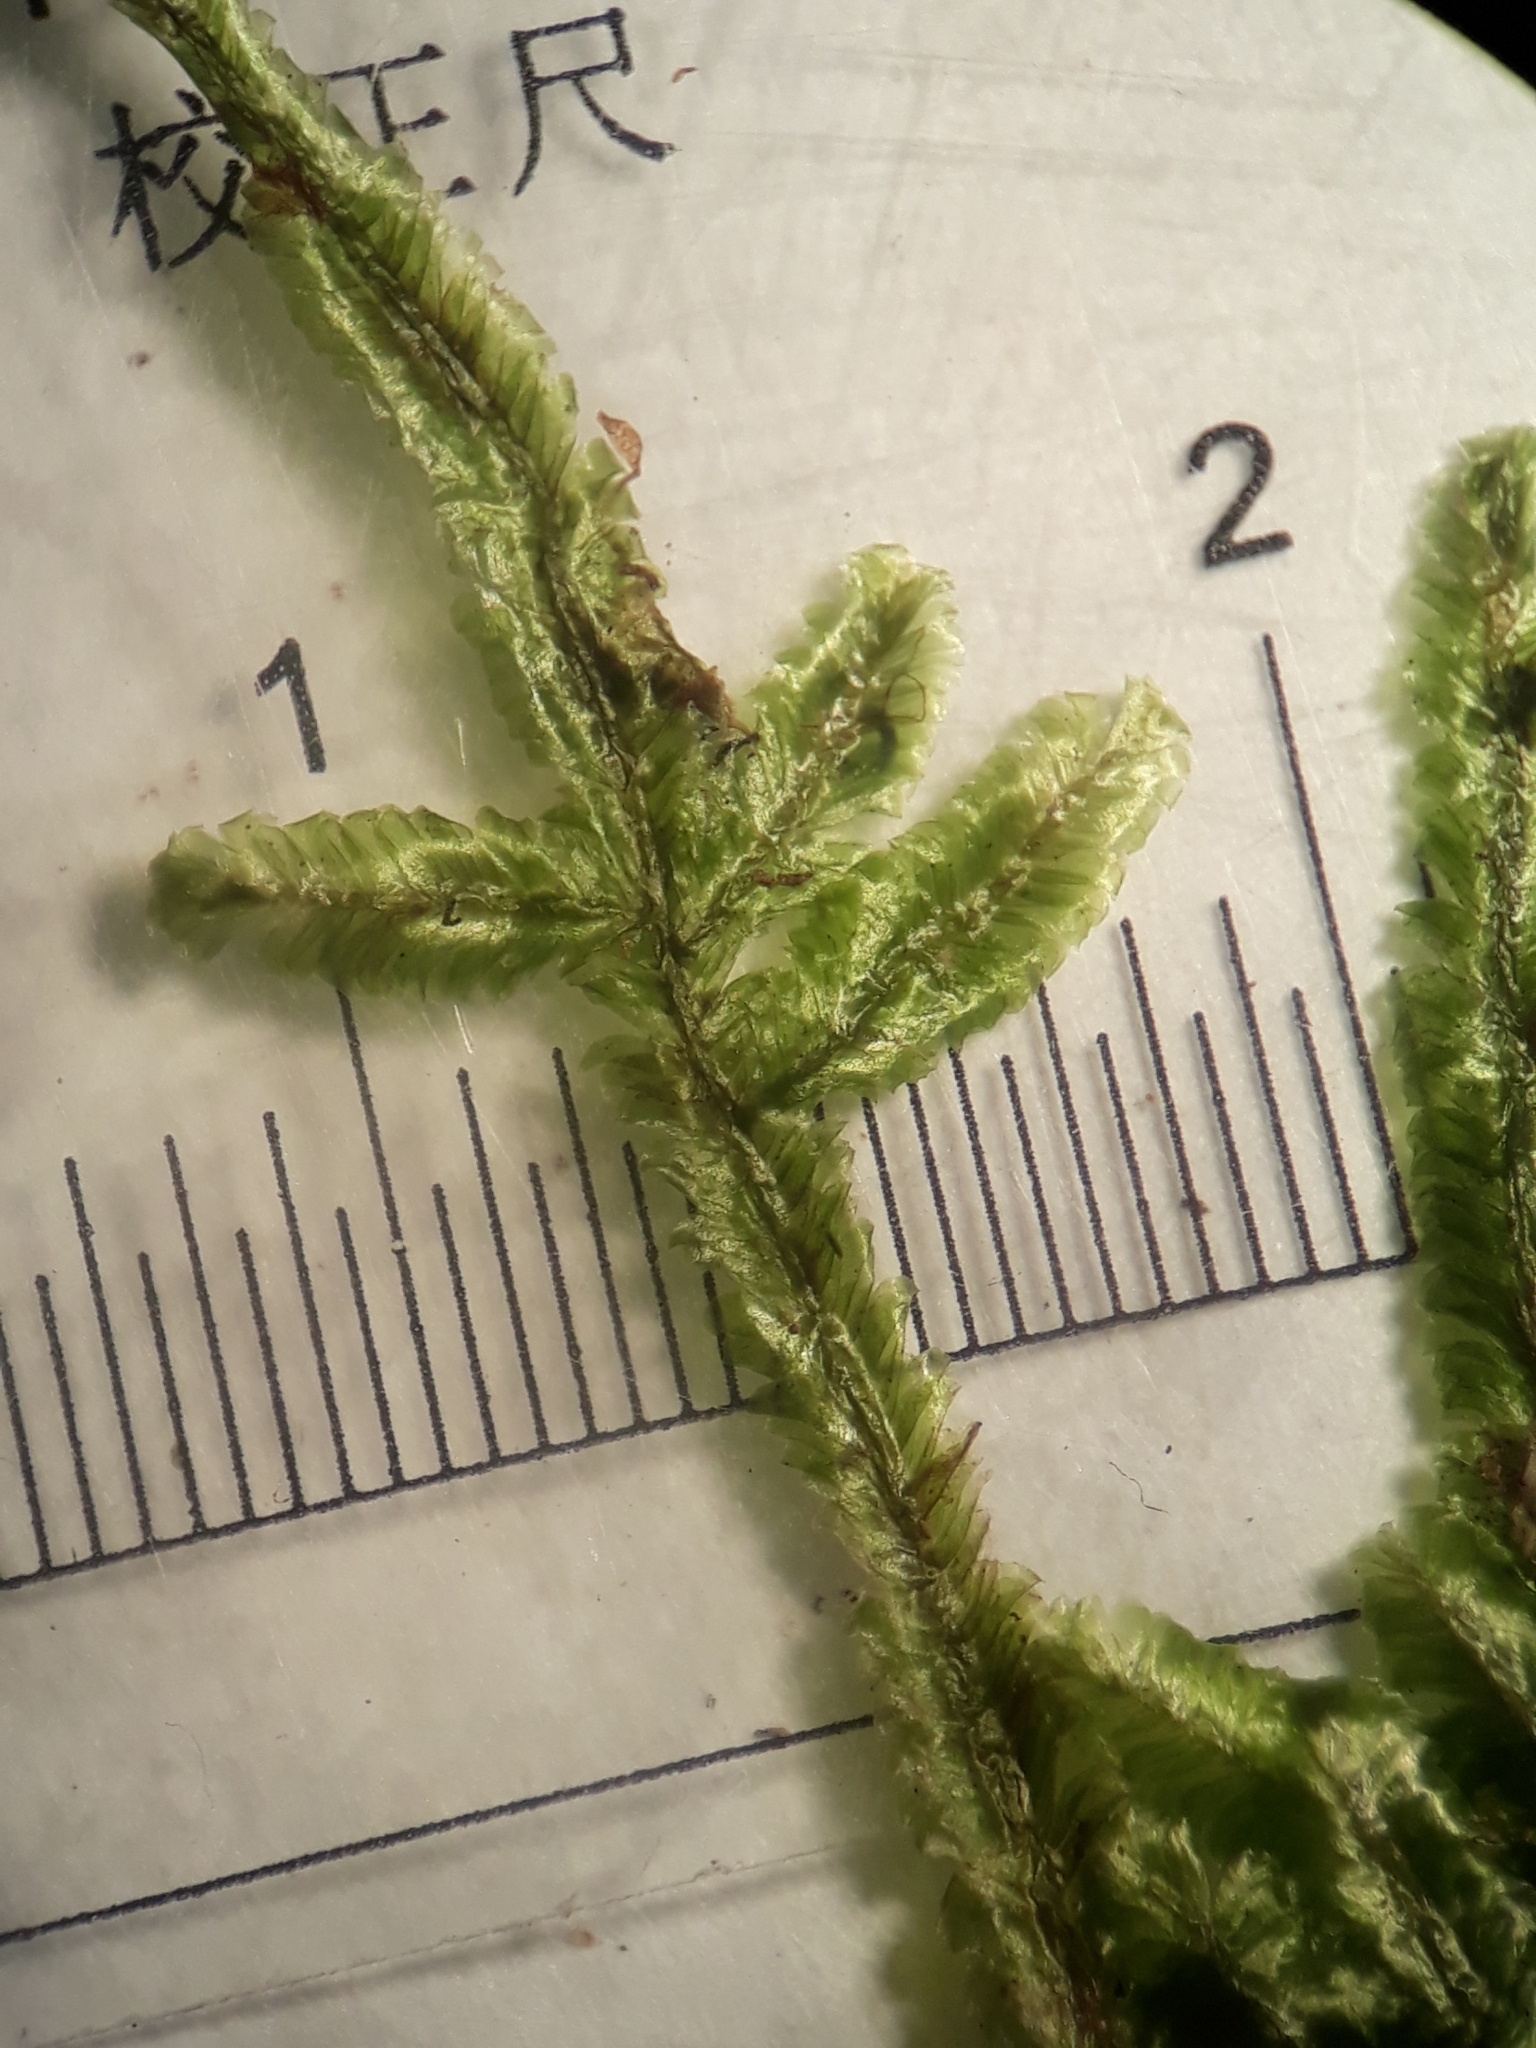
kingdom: Plantae
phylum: Bryophyta
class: Bryopsida
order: Hypnales
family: Lembophyllaceae
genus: Margrethypnum
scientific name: Margrethypnum falcifolium
